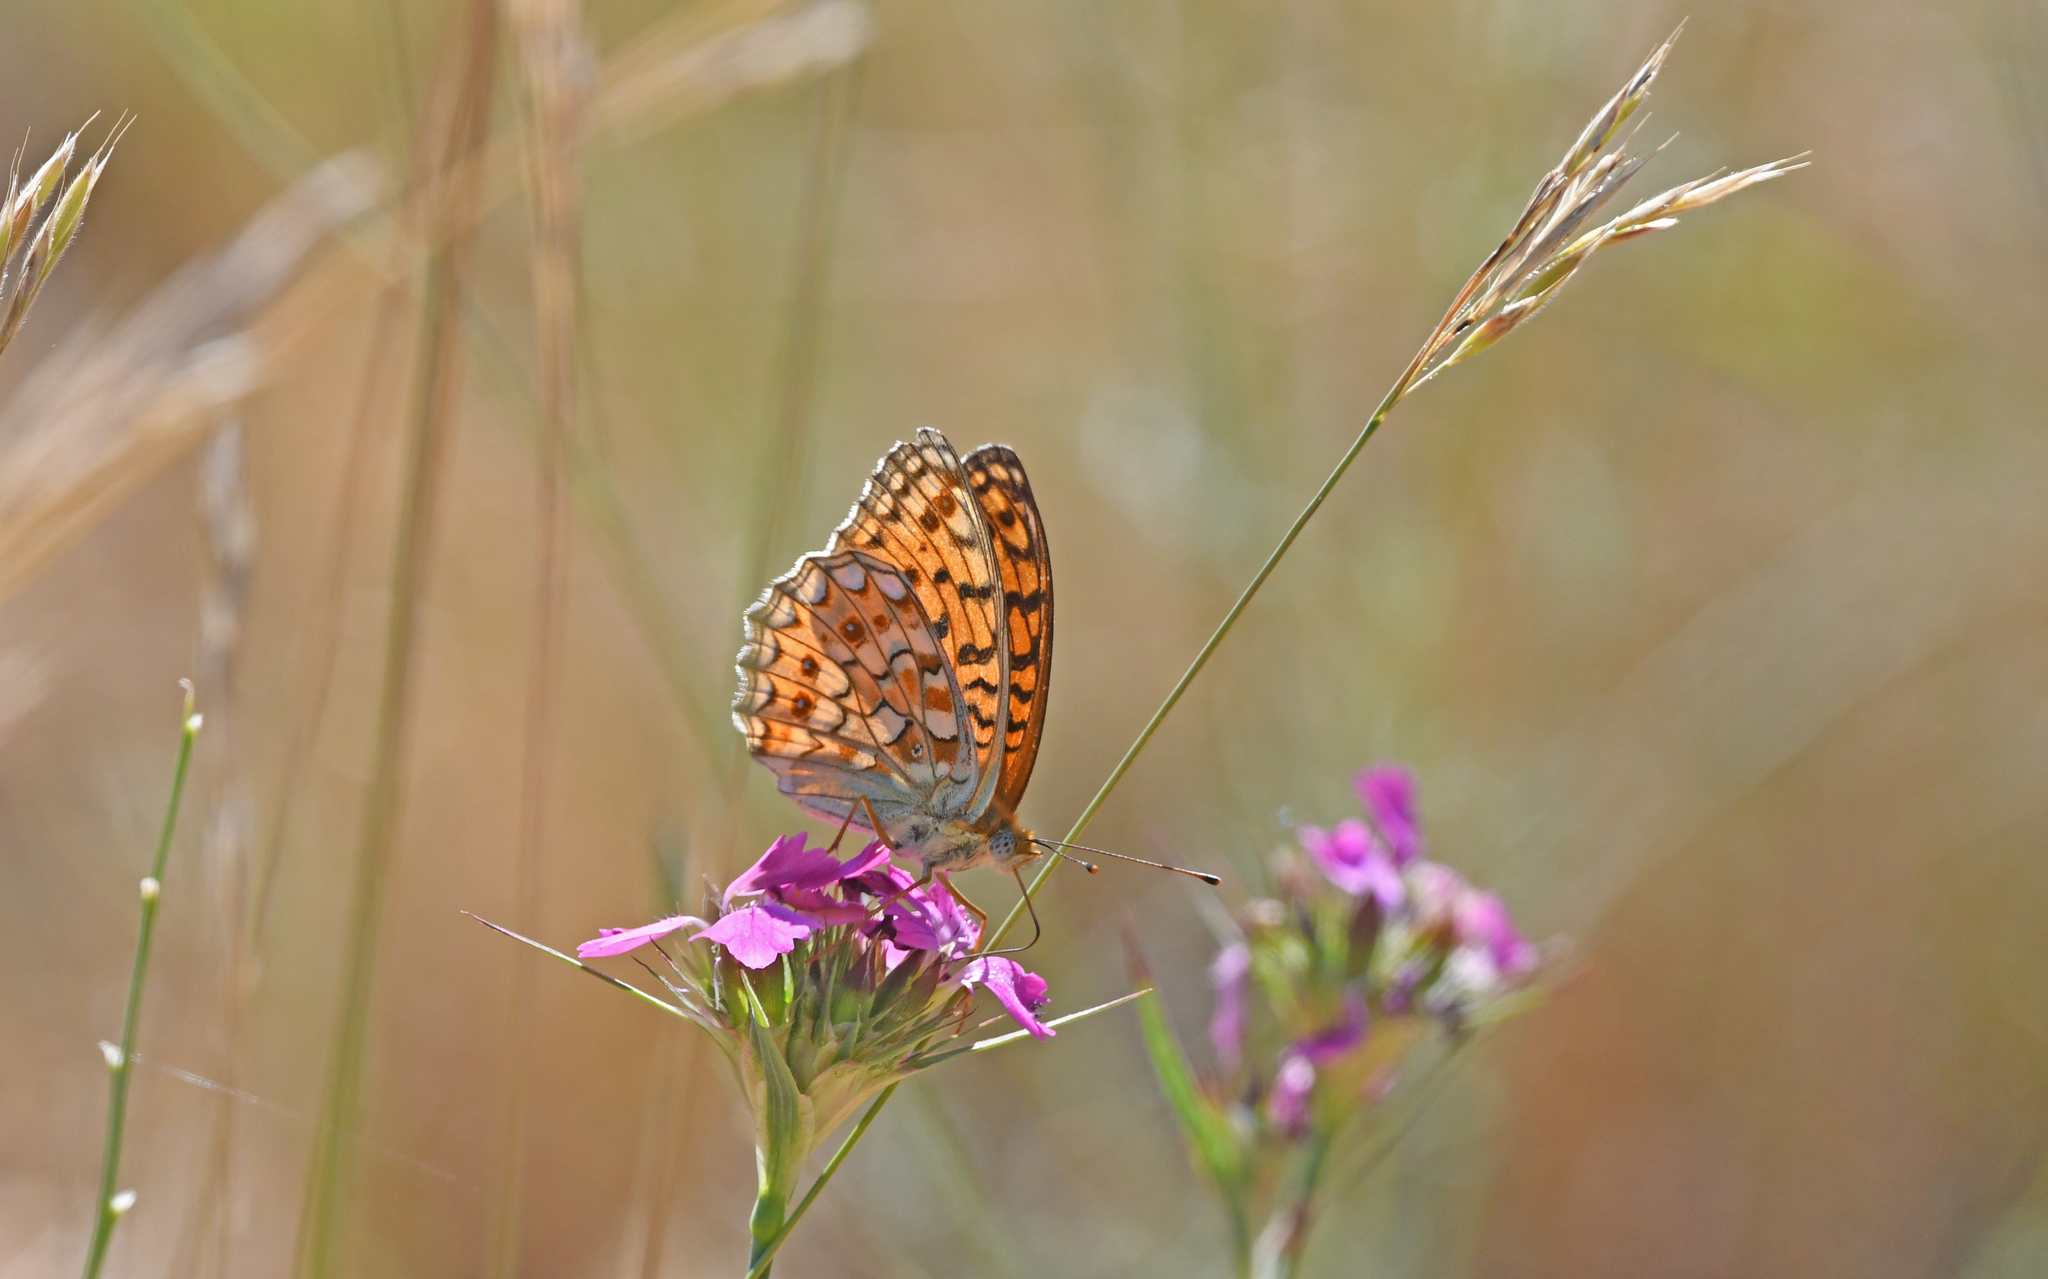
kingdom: Animalia
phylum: Arthropoda
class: Insecta
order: Lepidoptera
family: Nymphalidae
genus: Fabriciana
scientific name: Fabriciana niobe
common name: Niobe fritillary
